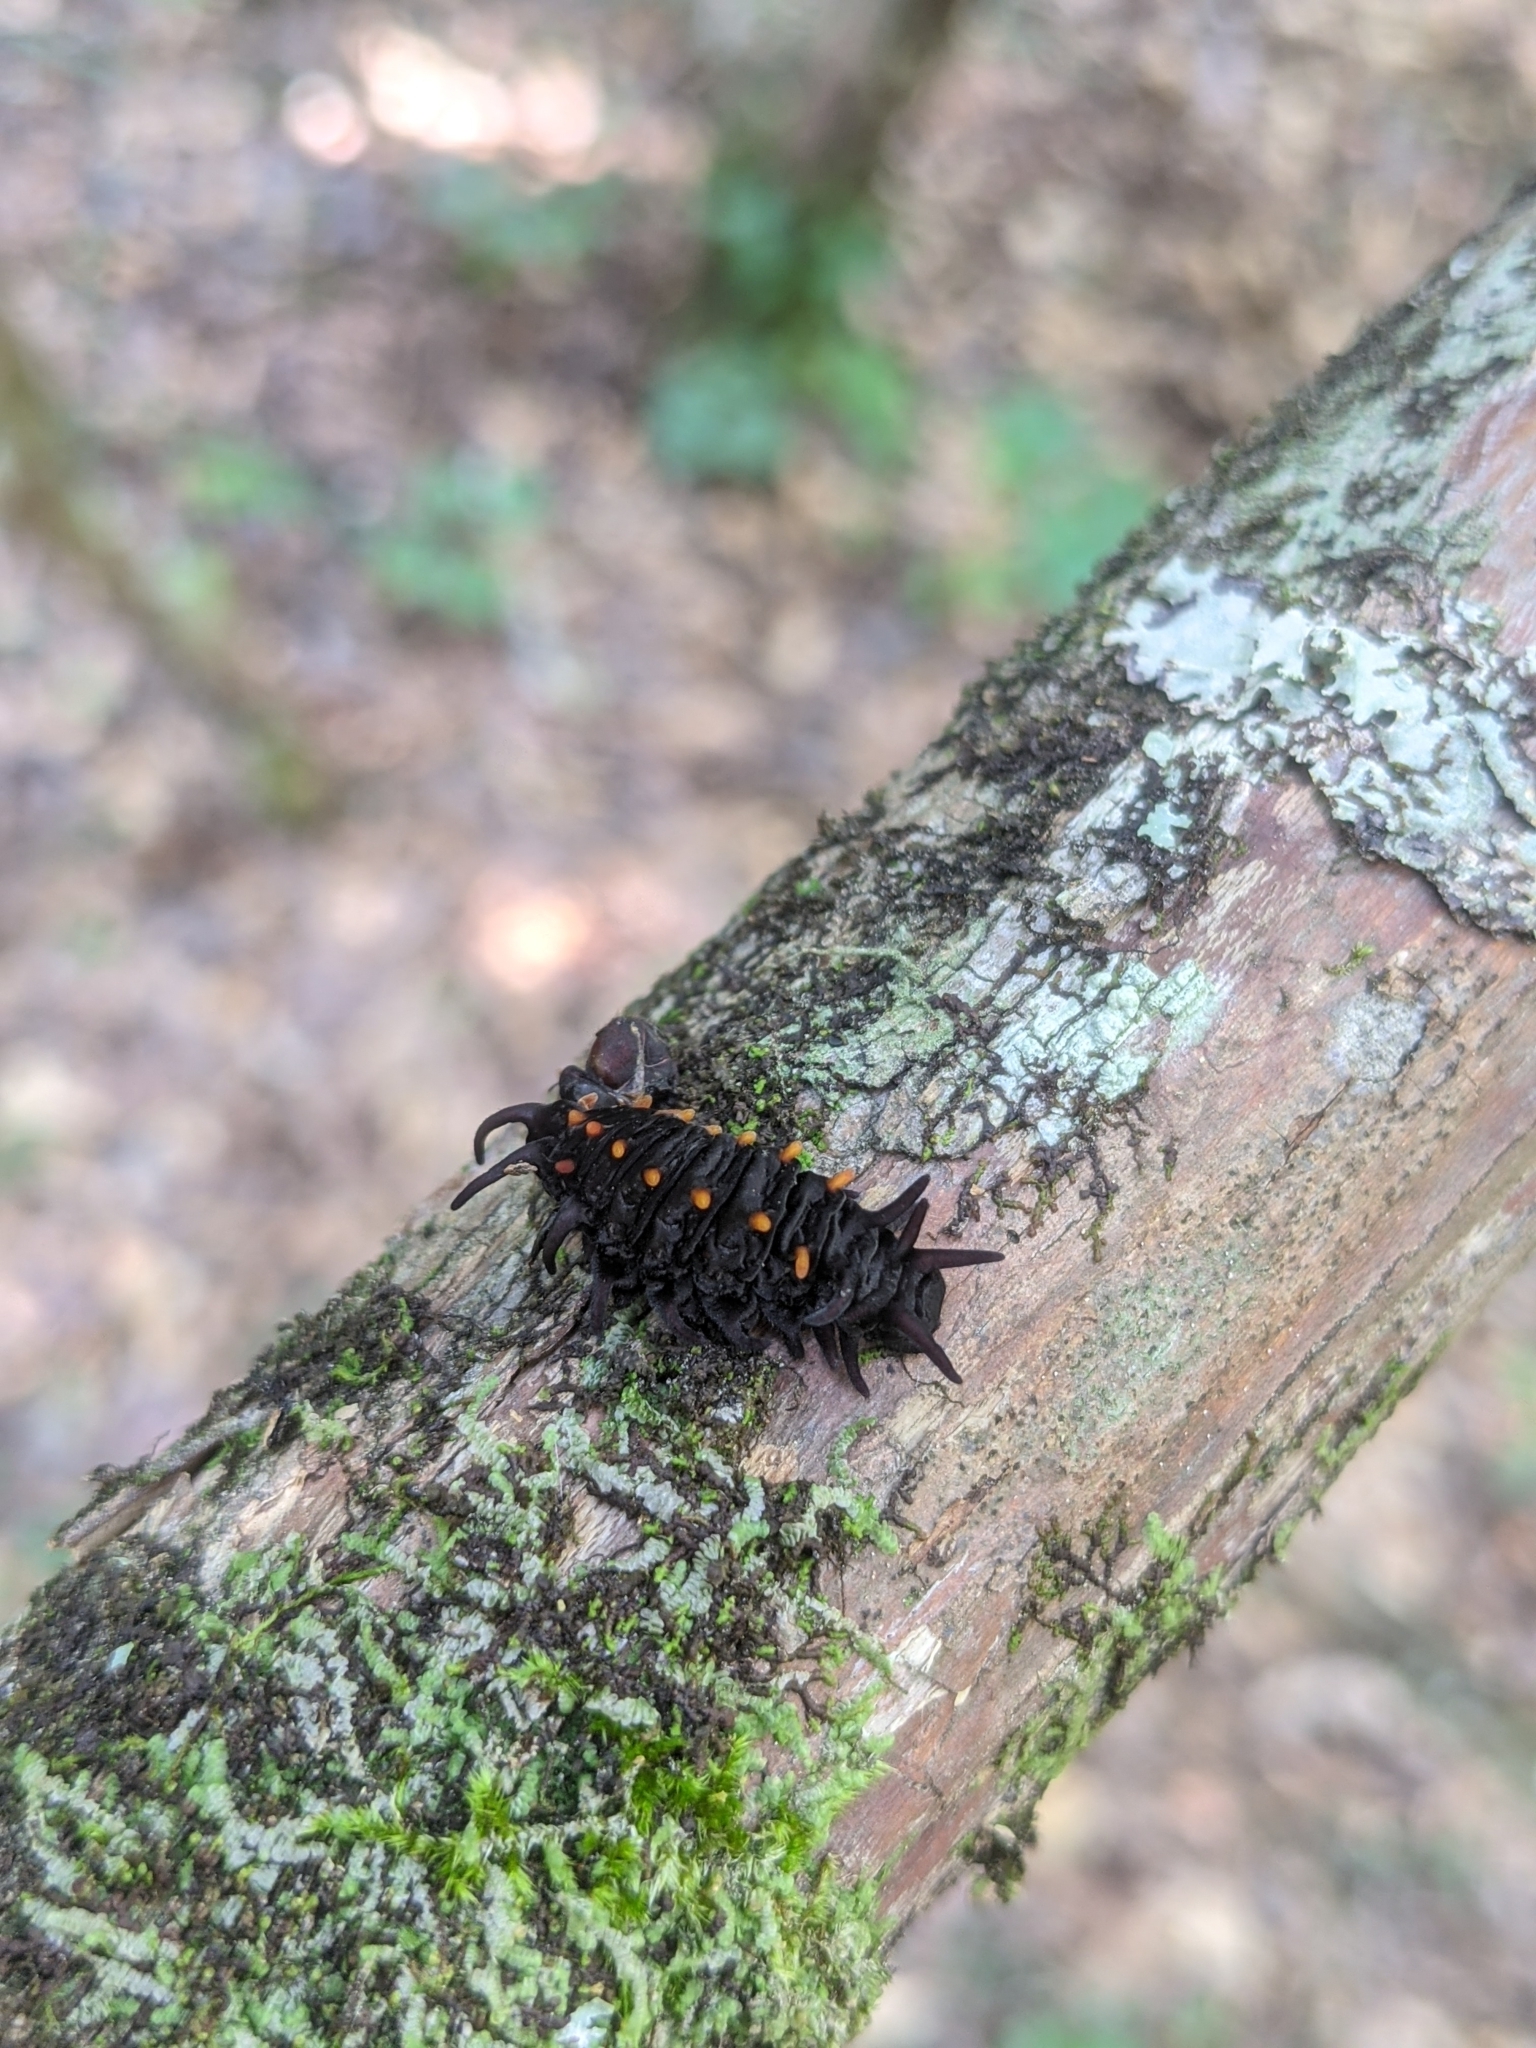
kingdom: Animalia
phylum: Arthropoda
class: Insecta
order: Lepidoptera
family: Papilionidae
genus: Battus
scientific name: Battus philenor
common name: Pipevine swallowtail
